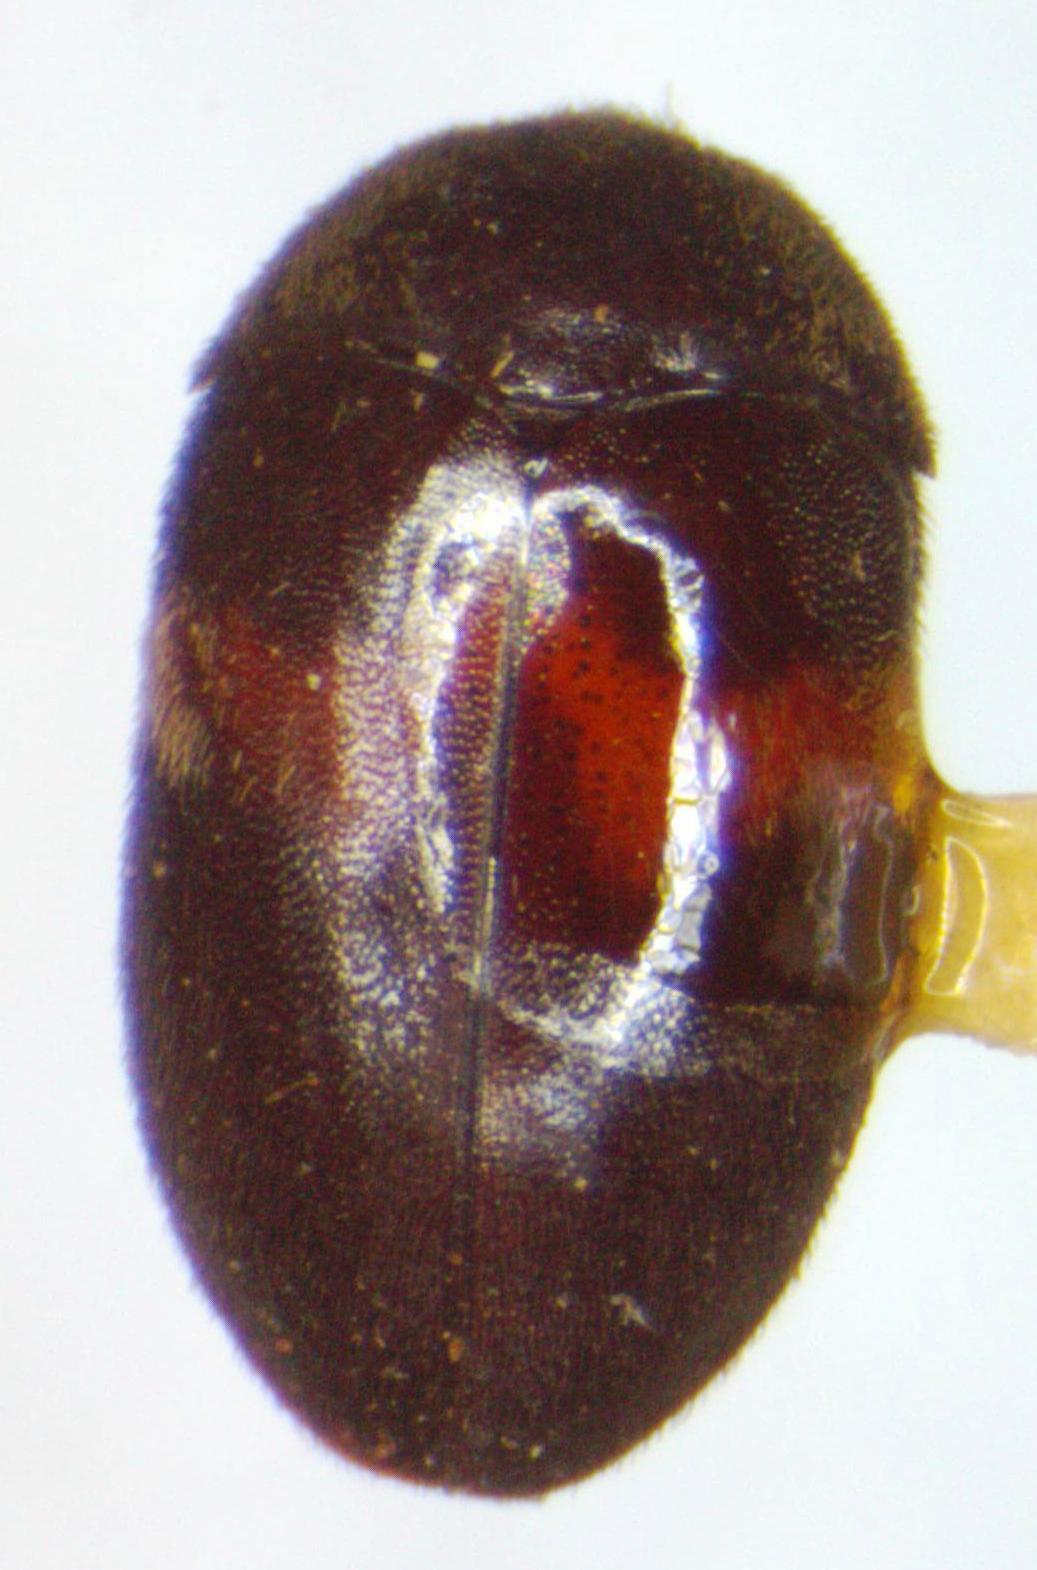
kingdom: Animalia
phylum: Arthropoda
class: Insecta
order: Coleoptera
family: Dermestidae
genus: Attagenus
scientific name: Attagenus fasciatus
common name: Wardrobe beetle
